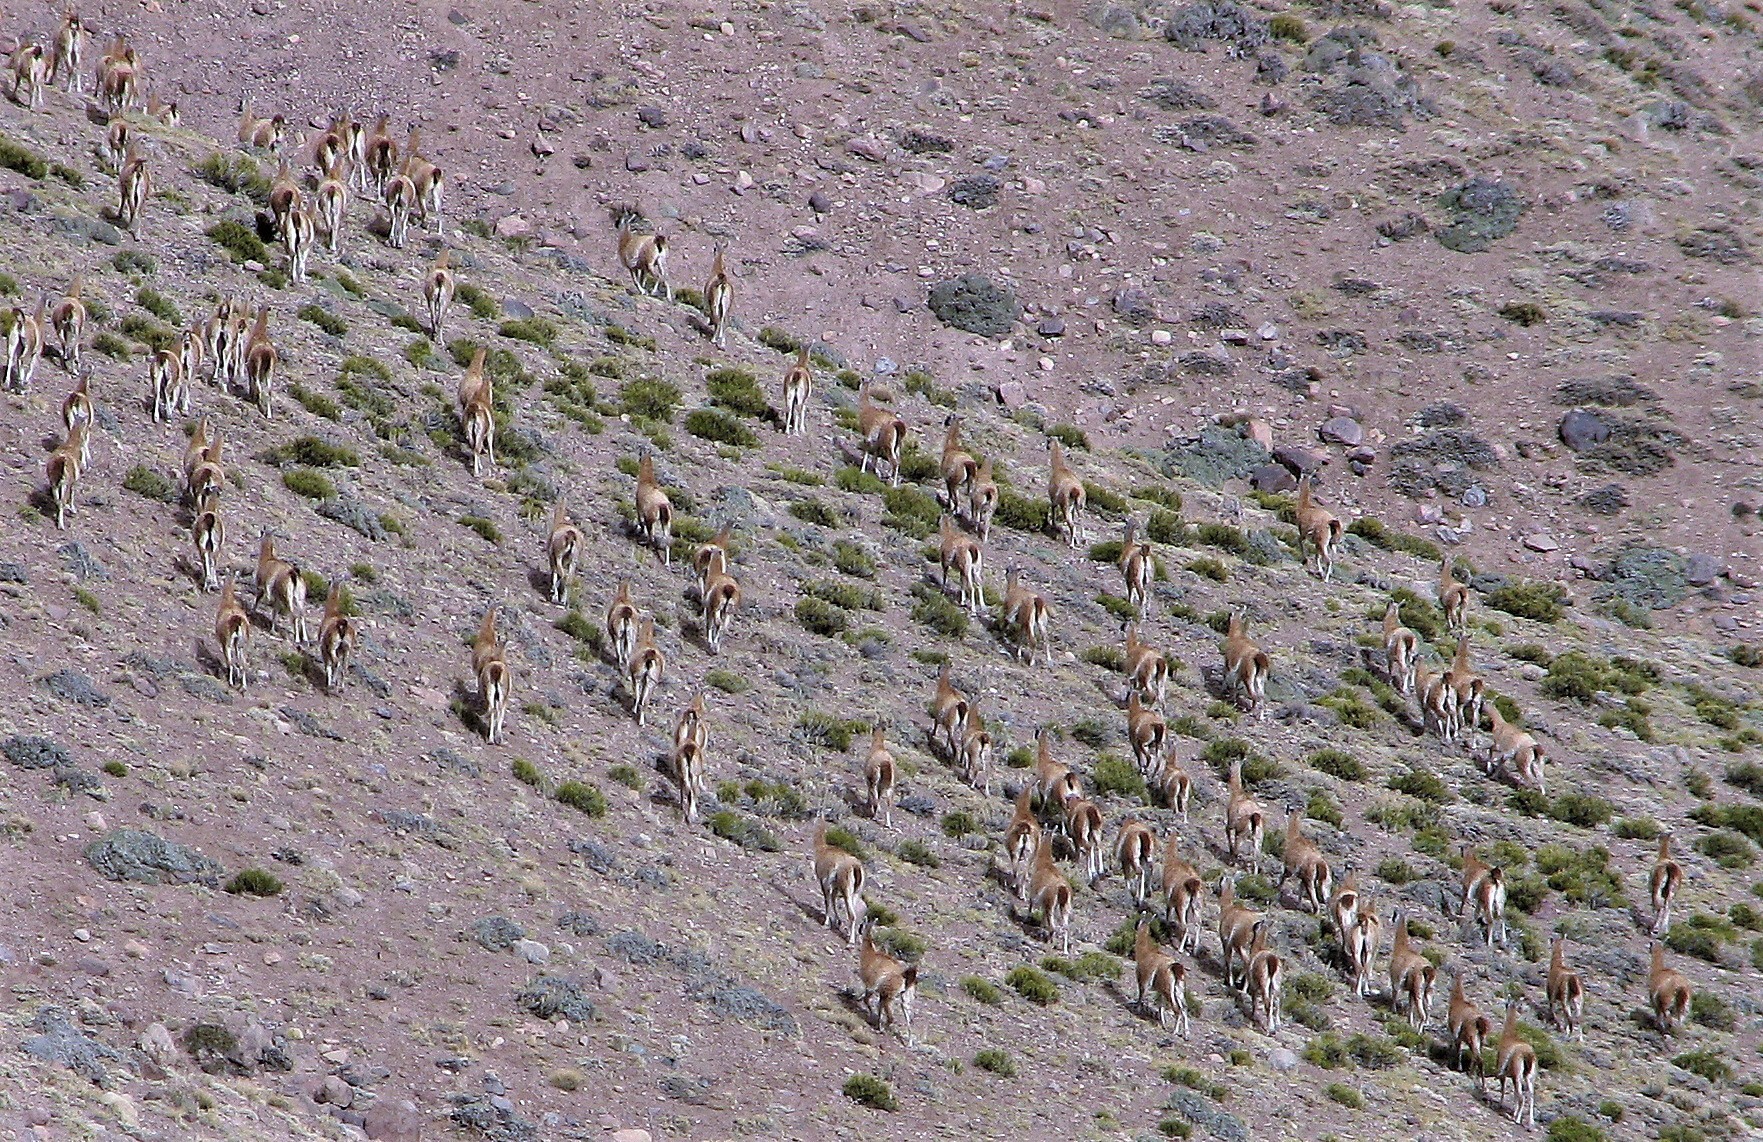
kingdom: Animalia
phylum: Chordata
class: Mammalia
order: Artiodactyla
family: Camelidae
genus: Lama
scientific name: Lama glama
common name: Llama
